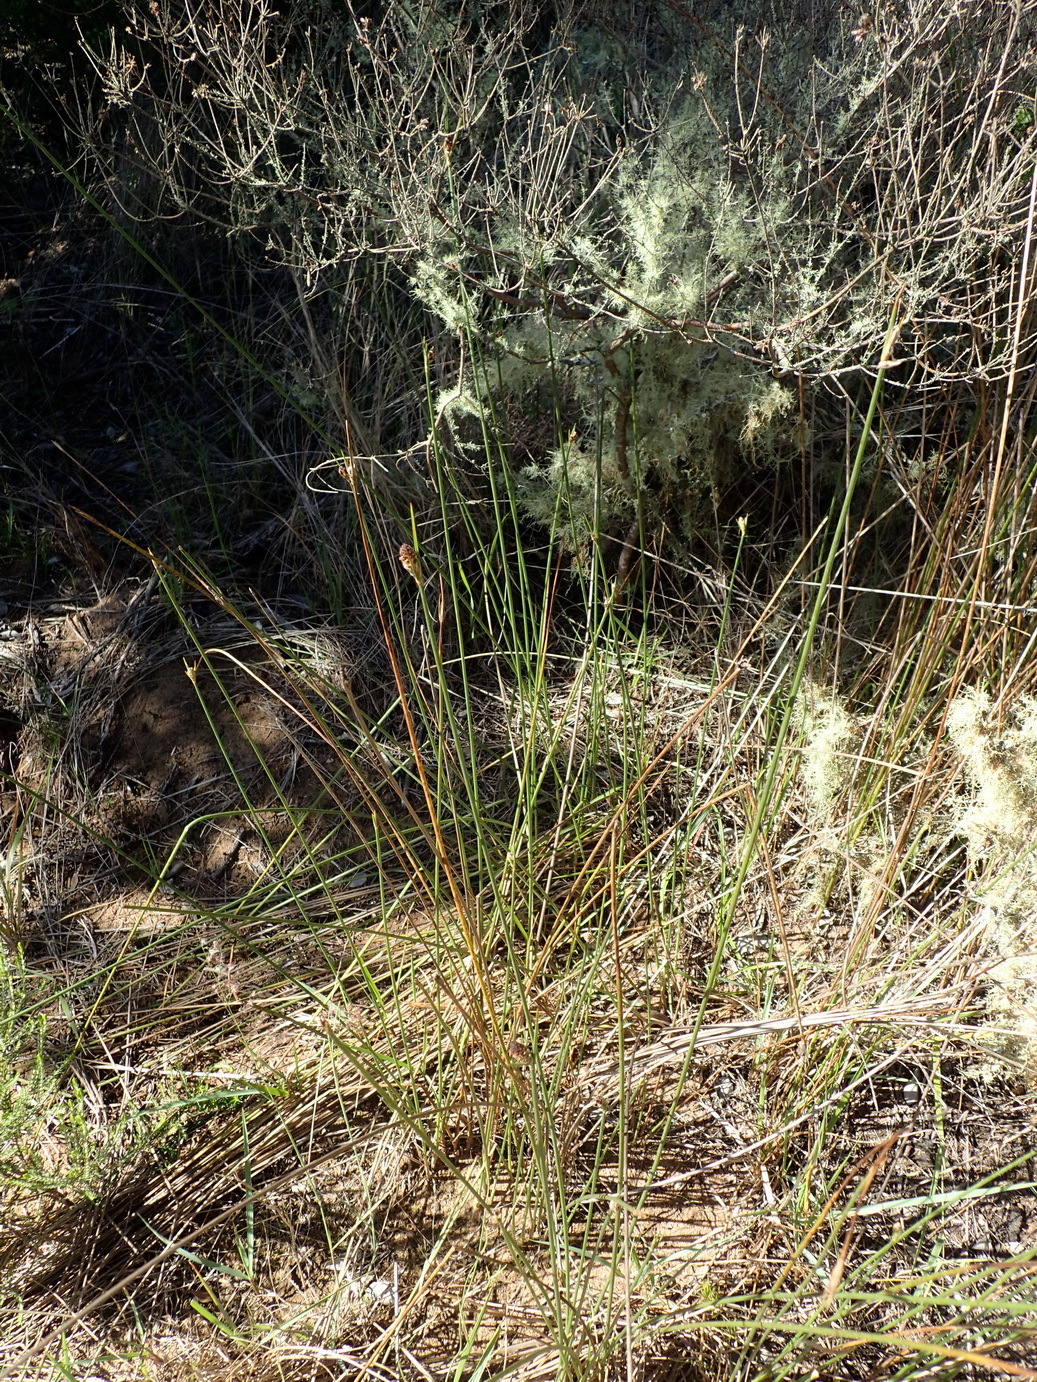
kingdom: Plantae
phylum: Tracheophyta
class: Liliopsida
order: Poales
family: Cyperaceae
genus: Hellmuthia
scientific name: Hellmuthia membranacea
